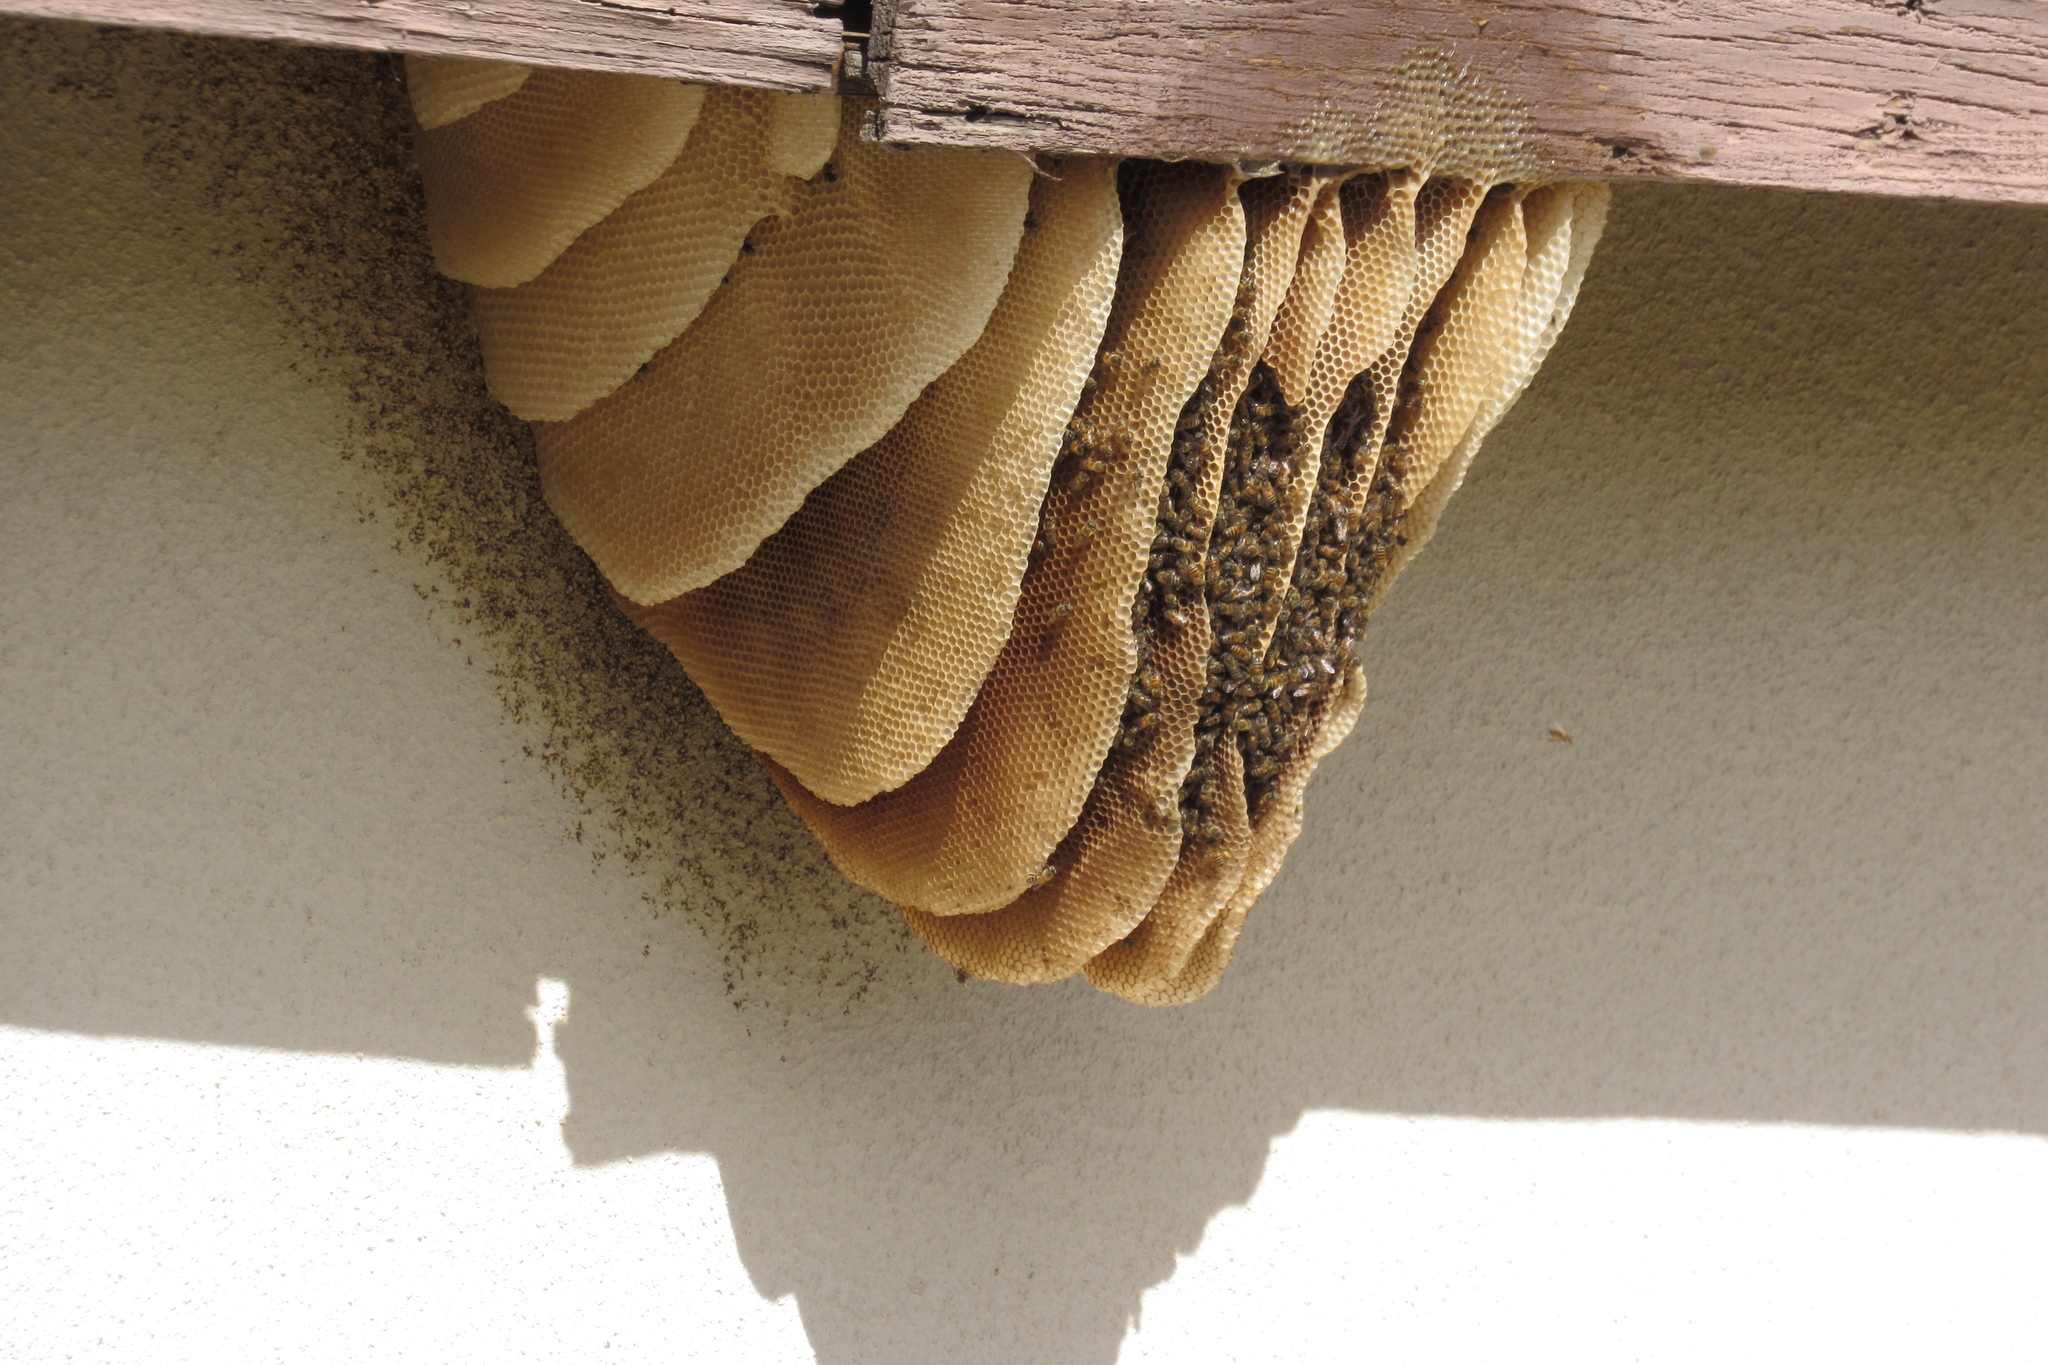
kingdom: Animalia
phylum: Arthropoda
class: Insecta
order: Hymenoptera
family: Apidae
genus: Apis
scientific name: Apis mellifera
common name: Honey bee
